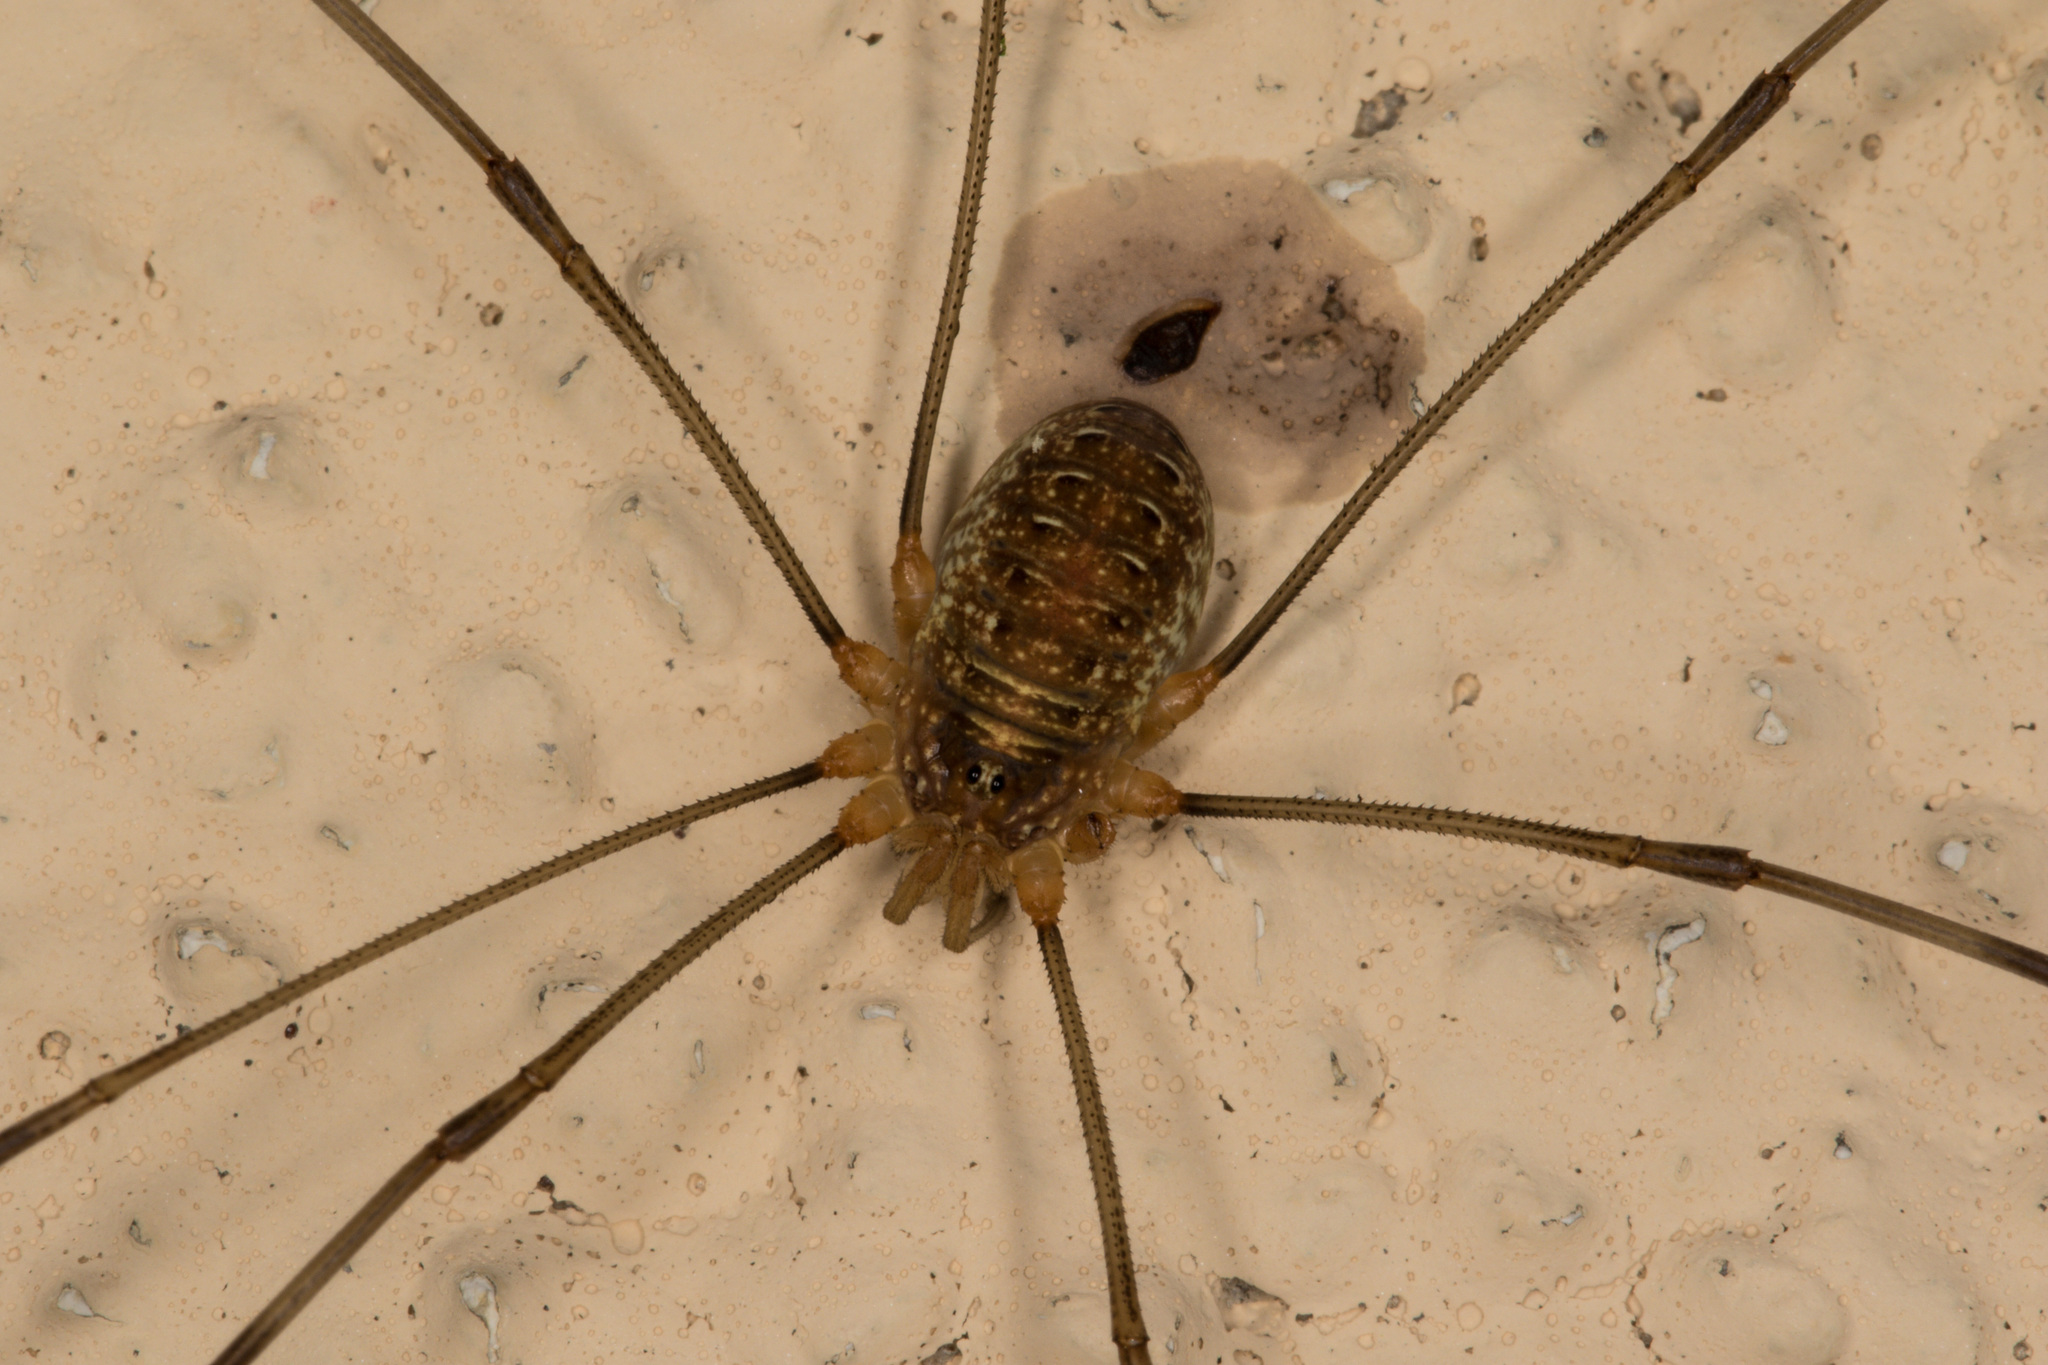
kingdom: Animalia
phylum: Arthropoda
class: Arachnida
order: Opiliones
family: Phalangiidae
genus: Opilio
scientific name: Opilio canestrinii
